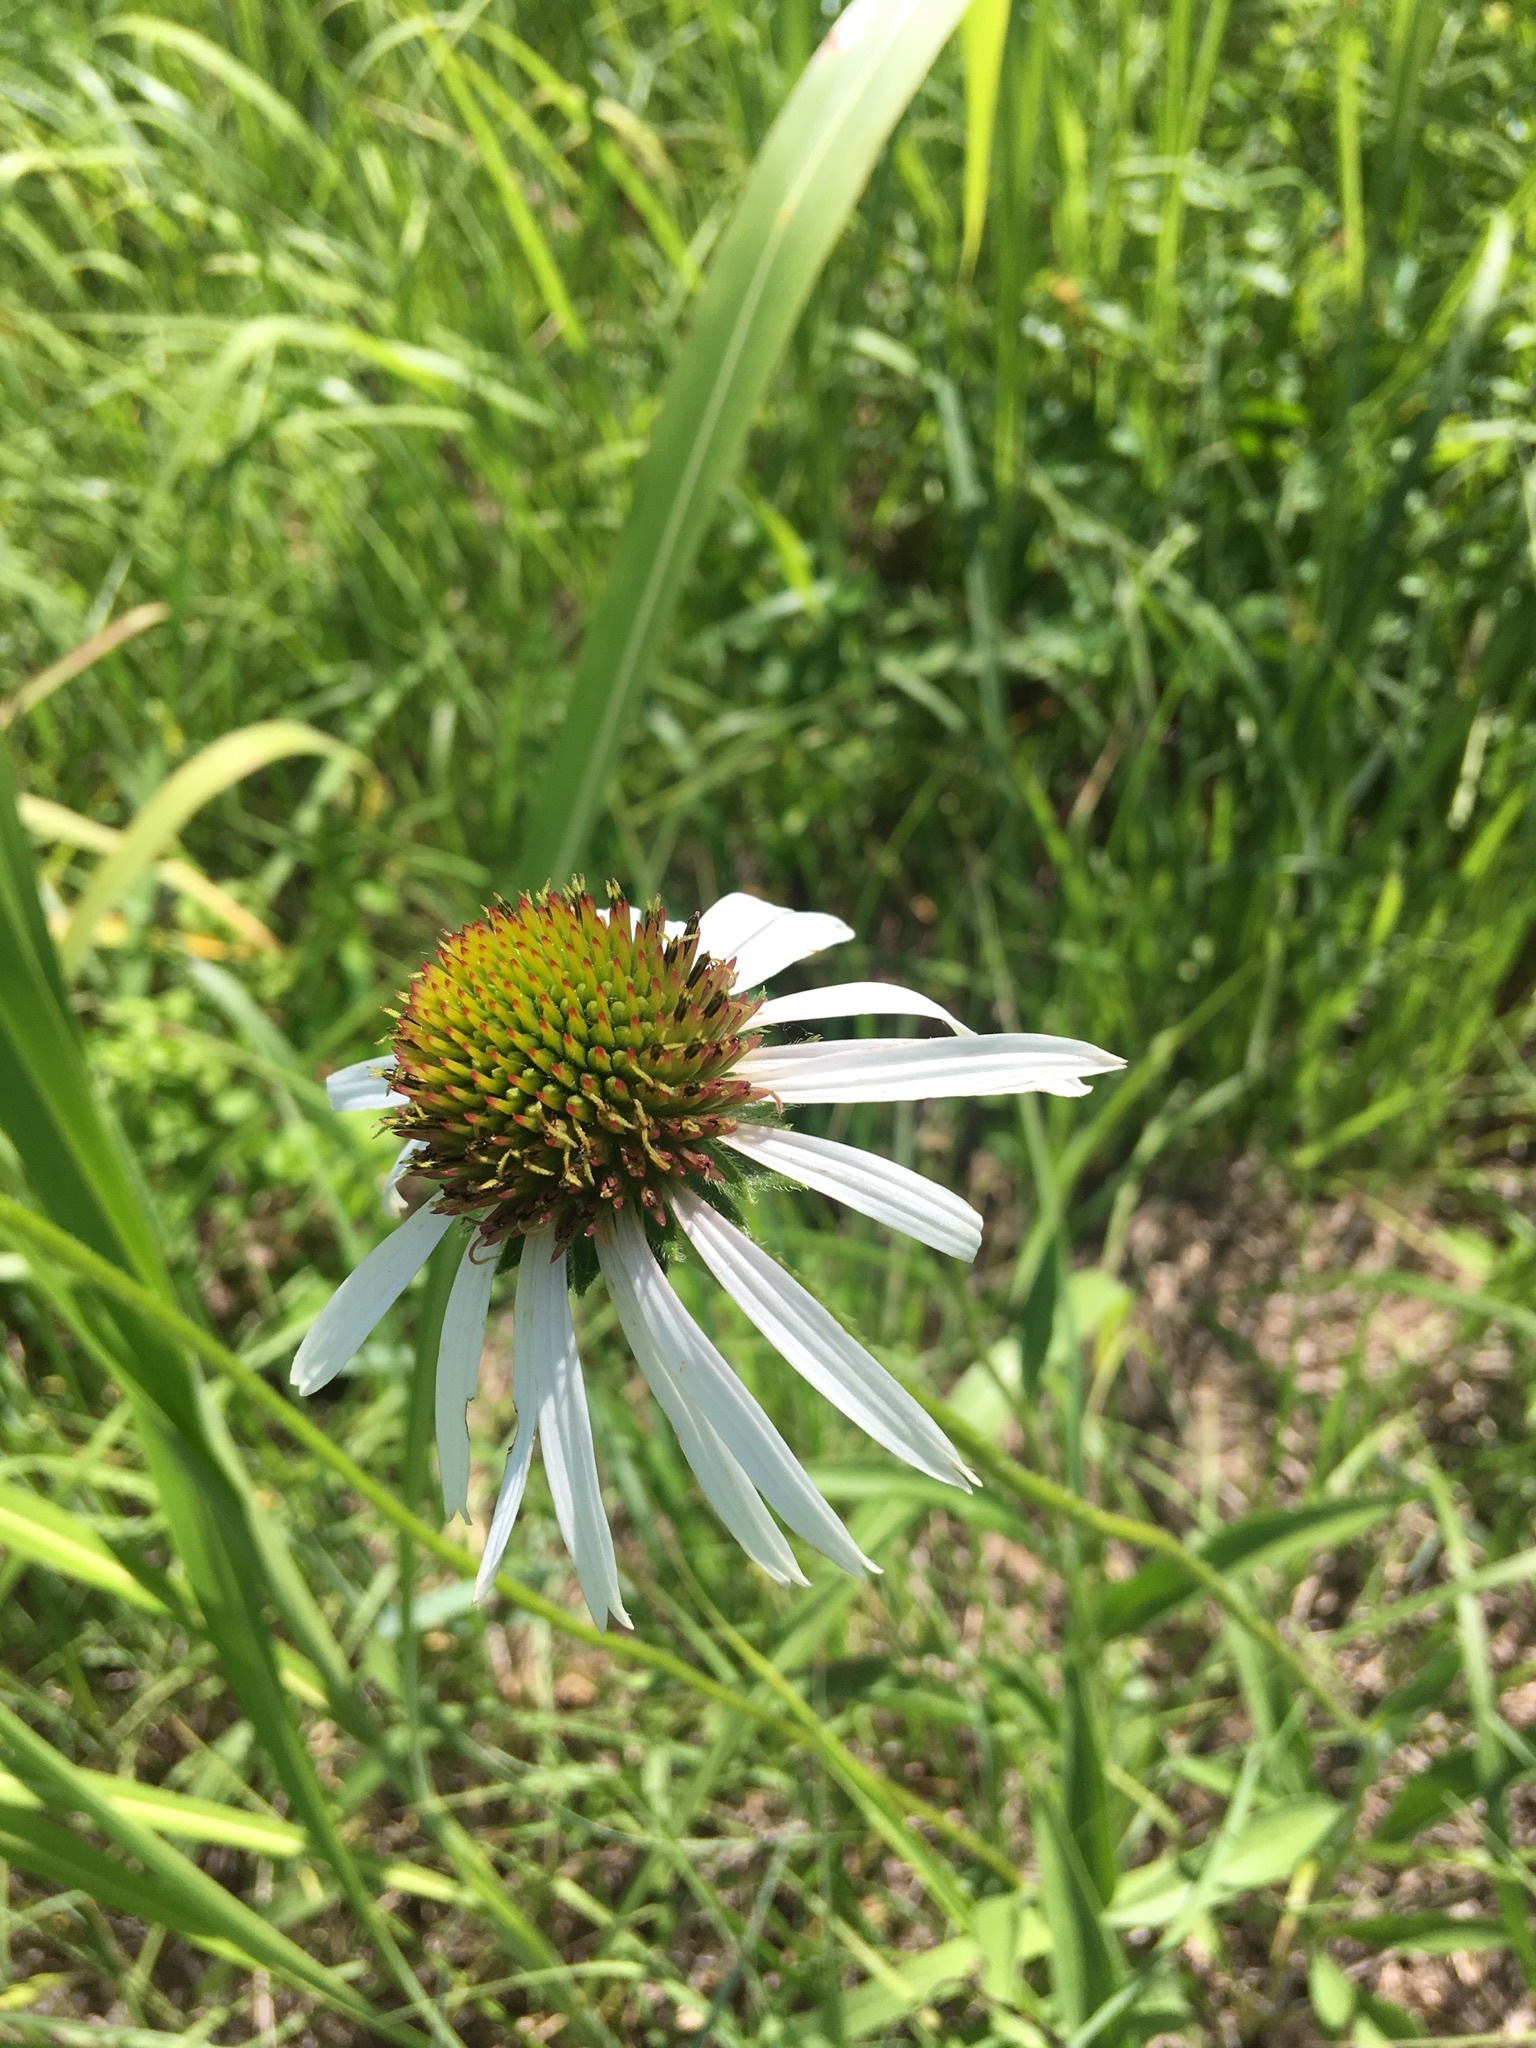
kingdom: Plantae
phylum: Tracheophyta
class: Magnoliopsida
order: Asterales
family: Asteraceae
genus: Echinacea
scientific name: Echinacea pallida
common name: Pale echinacea
